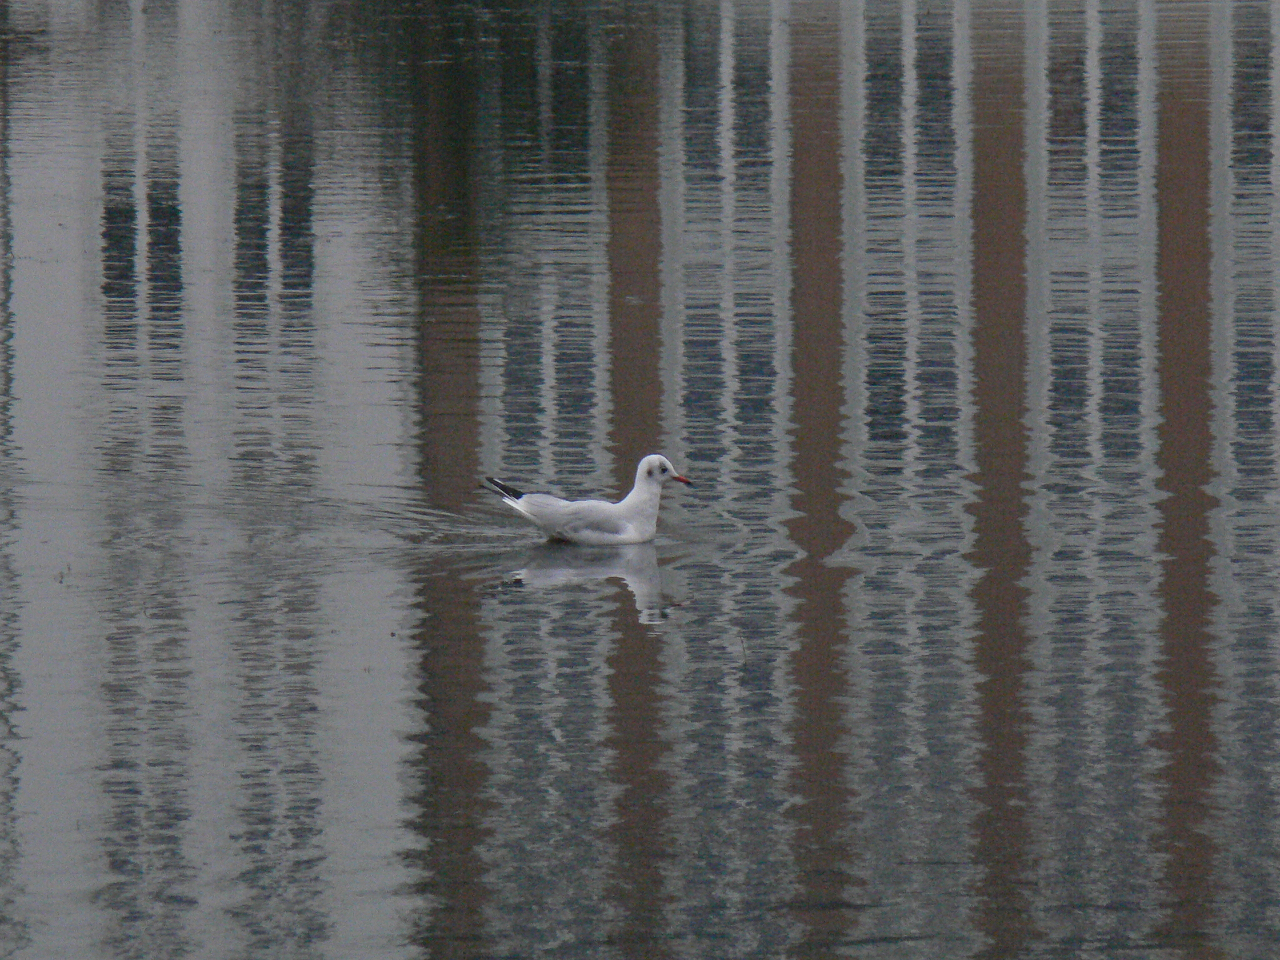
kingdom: Animalia
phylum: Chordata
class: Aves
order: Charadriiformes
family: Laridae
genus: Chroicocephalus
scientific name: Chroicocephalus ridibundus
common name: Black-headed gull
